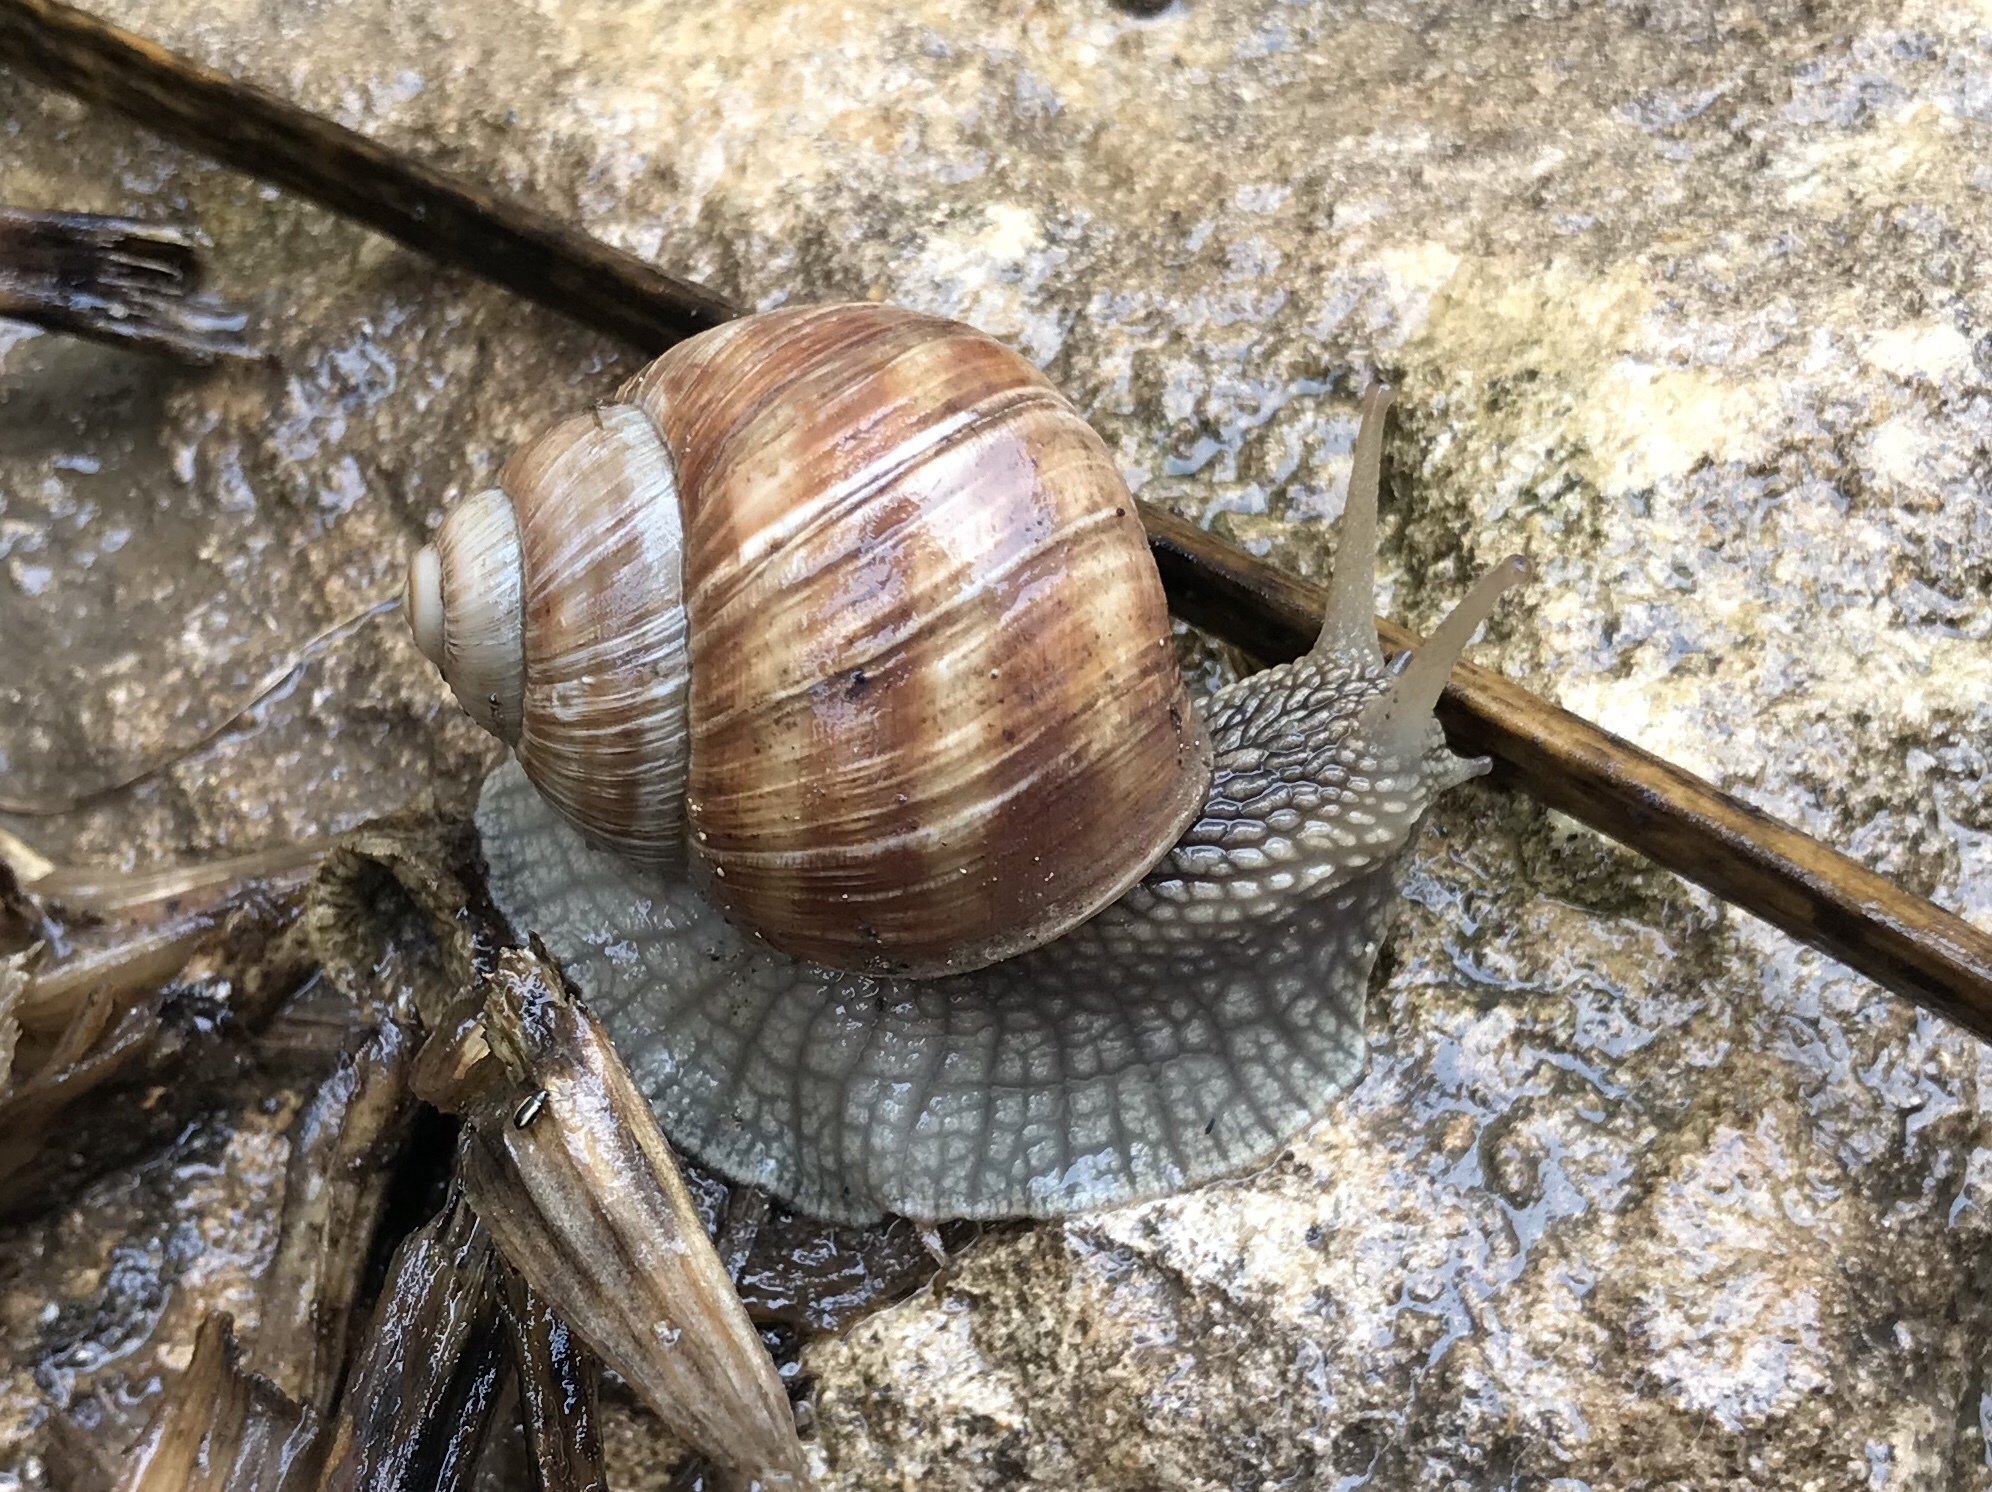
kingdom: Animalia
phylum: Mollusca
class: Gastropoda
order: Stylommatophora
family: Helicidae
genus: Helix
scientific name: Helix pomatia
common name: Roman snail
